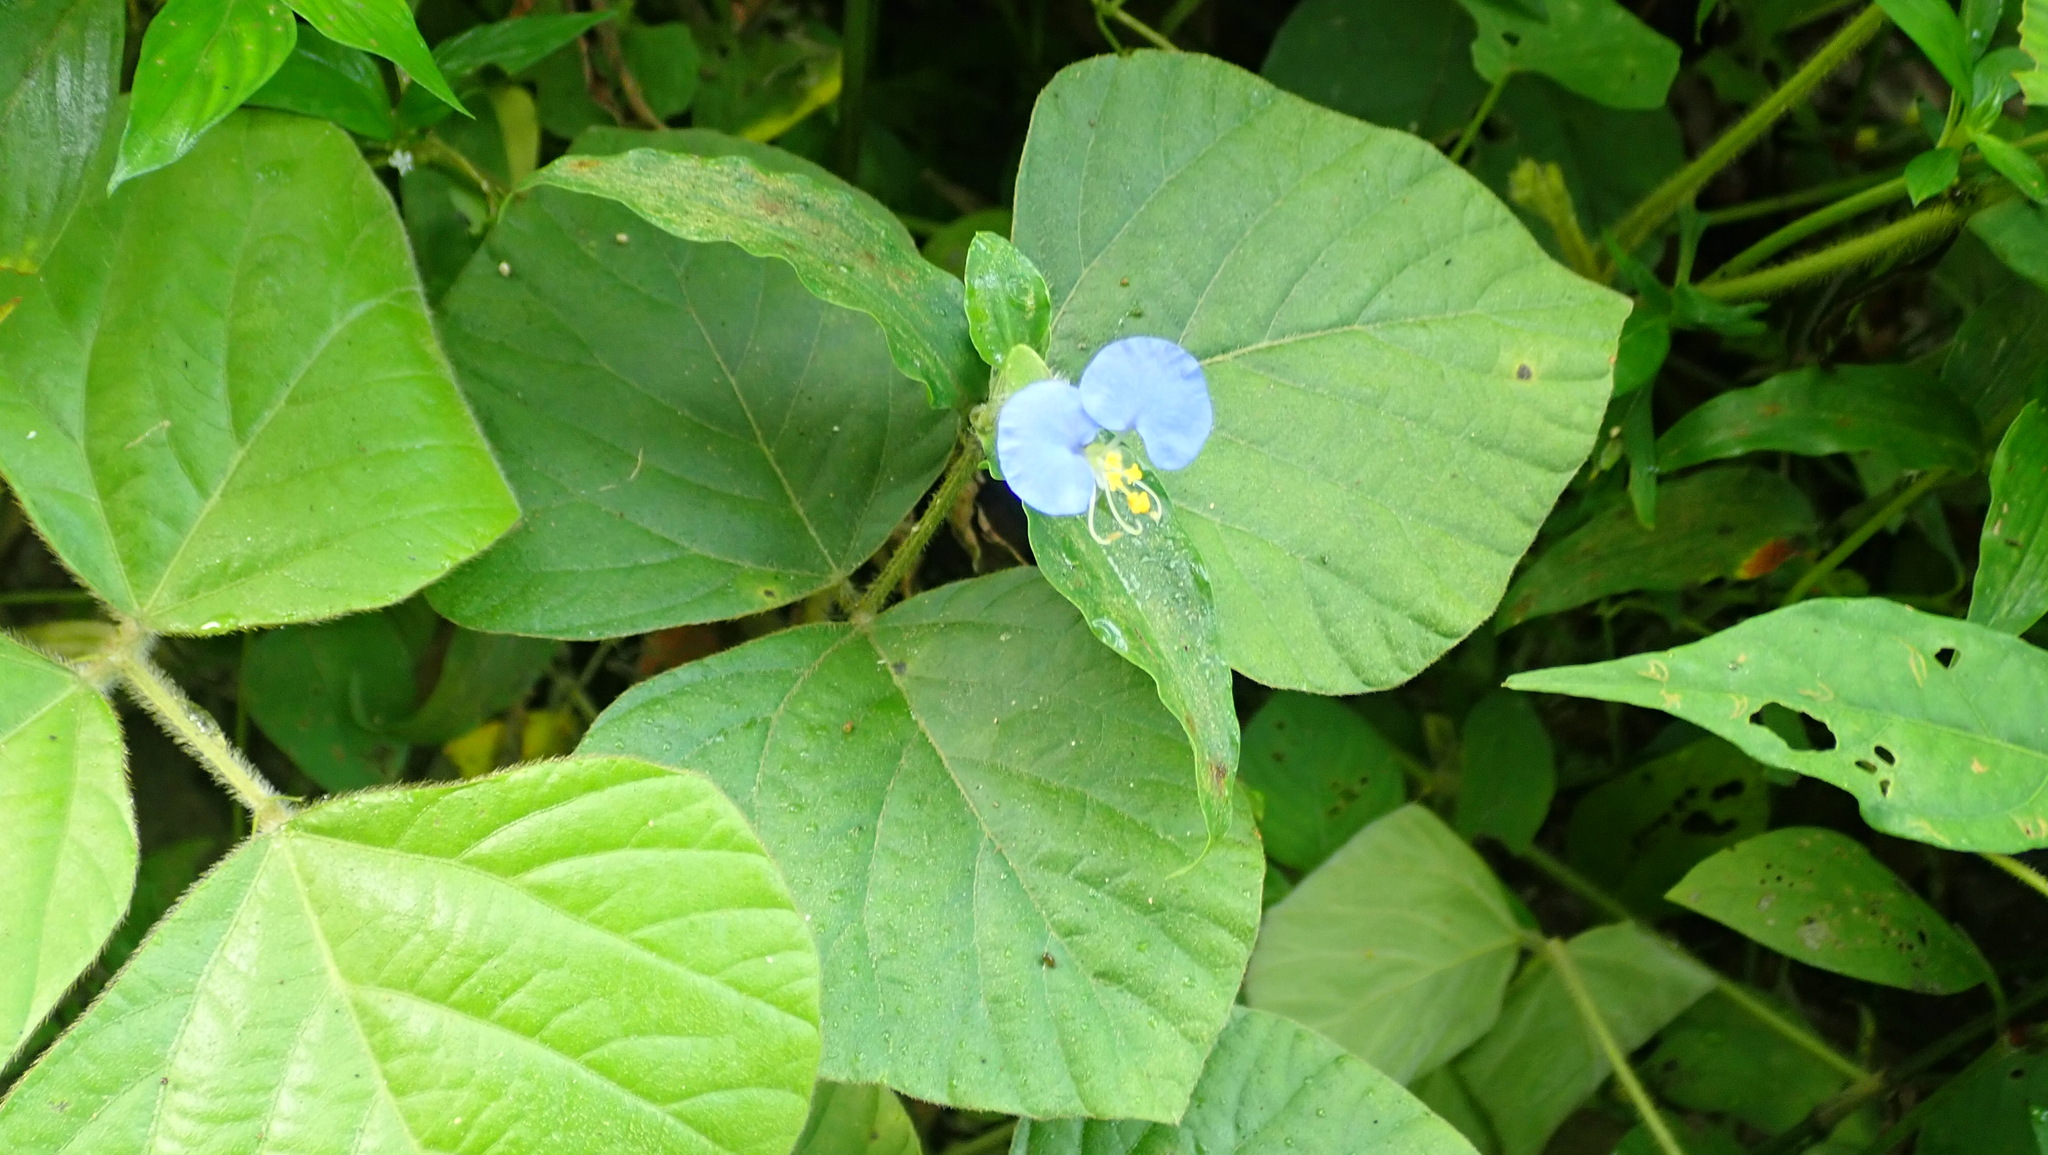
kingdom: Plantae
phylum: Tracheophyta
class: Liliopsida
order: Commelinales
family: Commelinaceae
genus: Commelina
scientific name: Commelina erecta
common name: Blousel blommetjie
